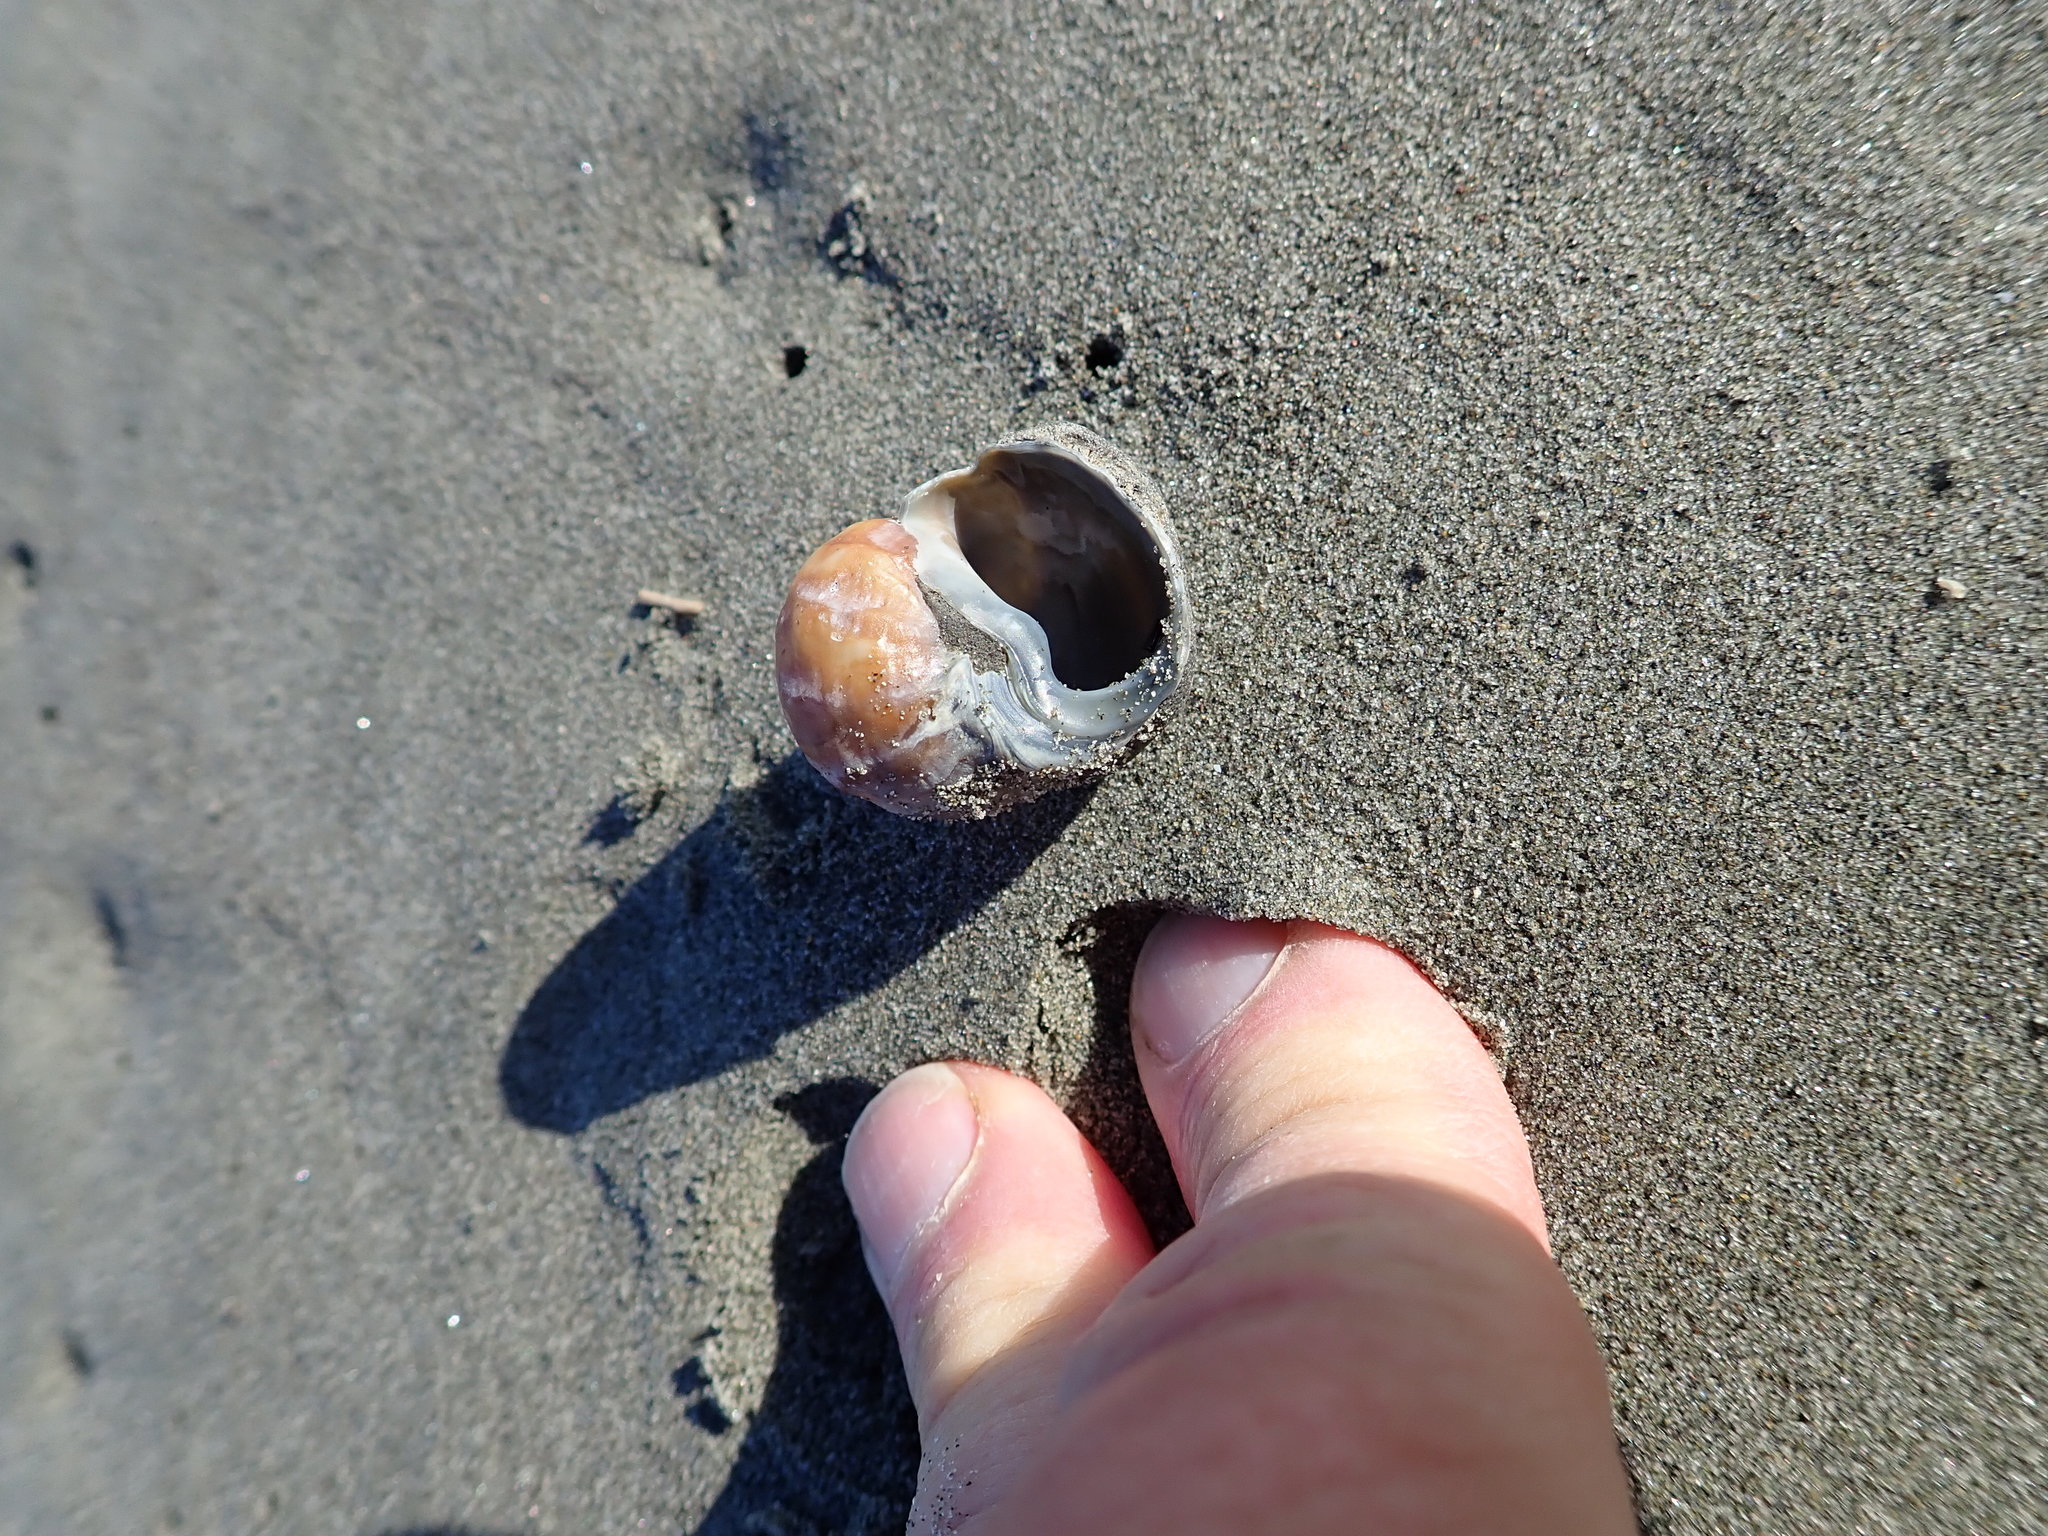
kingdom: Animalia
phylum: Mollusca
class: Gastropoda
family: Amphibolidae
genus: Amphibola
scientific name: Amphibola crenata
